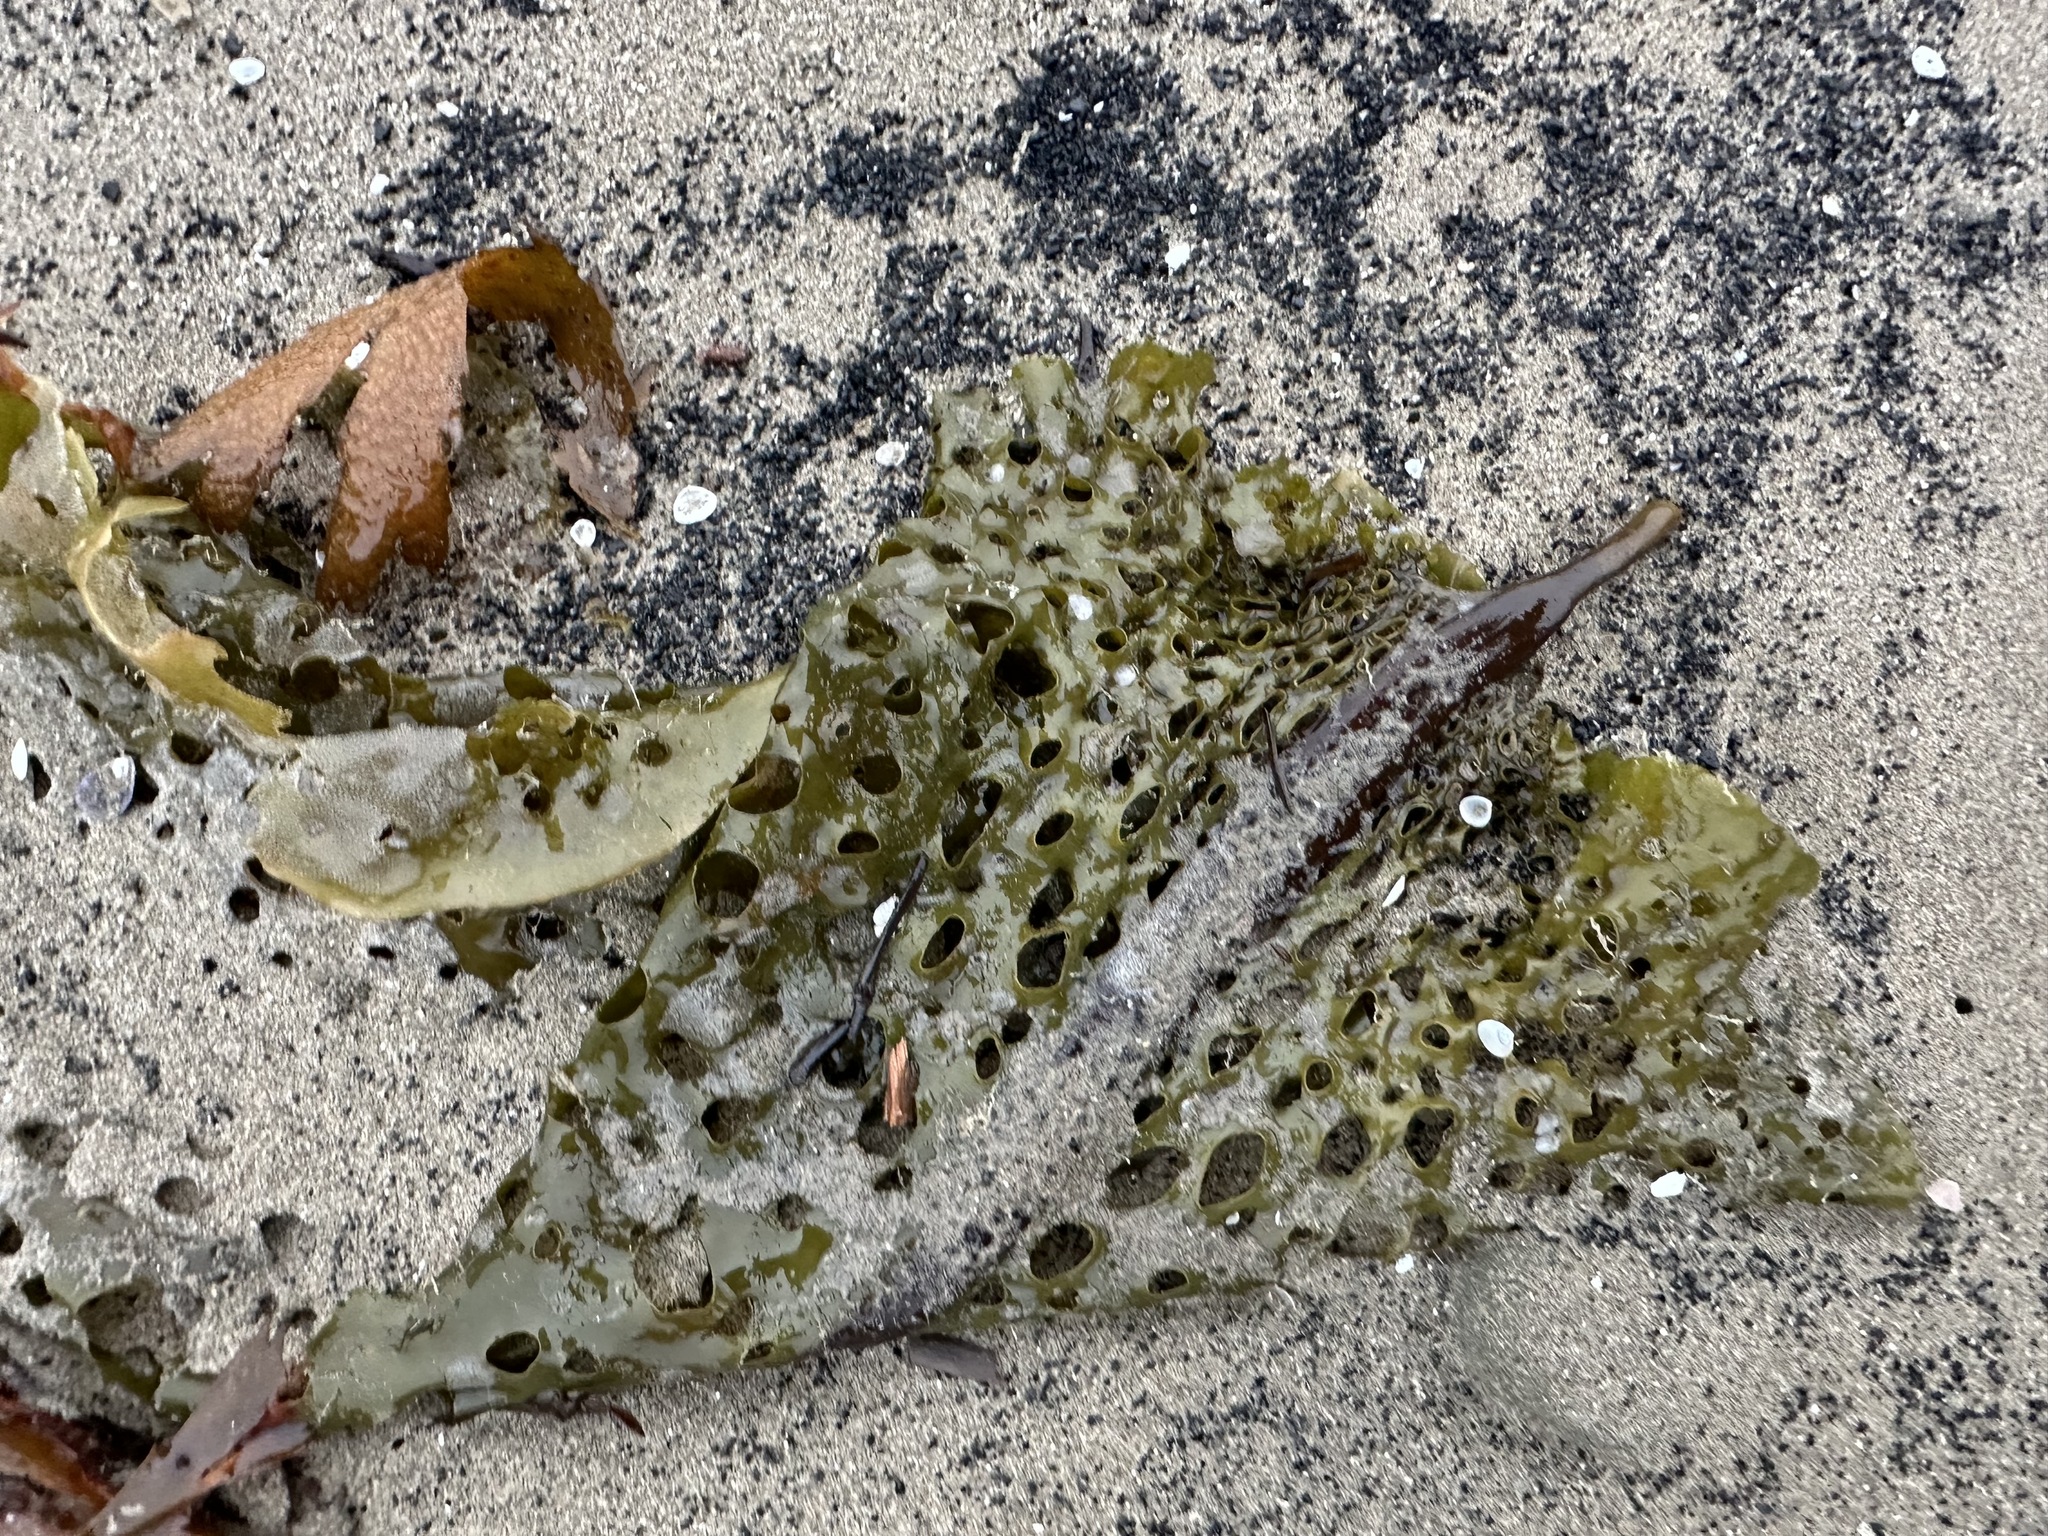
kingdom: Chromista
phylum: Ochrophyta
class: Phaeophyceae
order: Laminariales
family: Costariaceae
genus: Agarum
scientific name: Agarum clathratum
